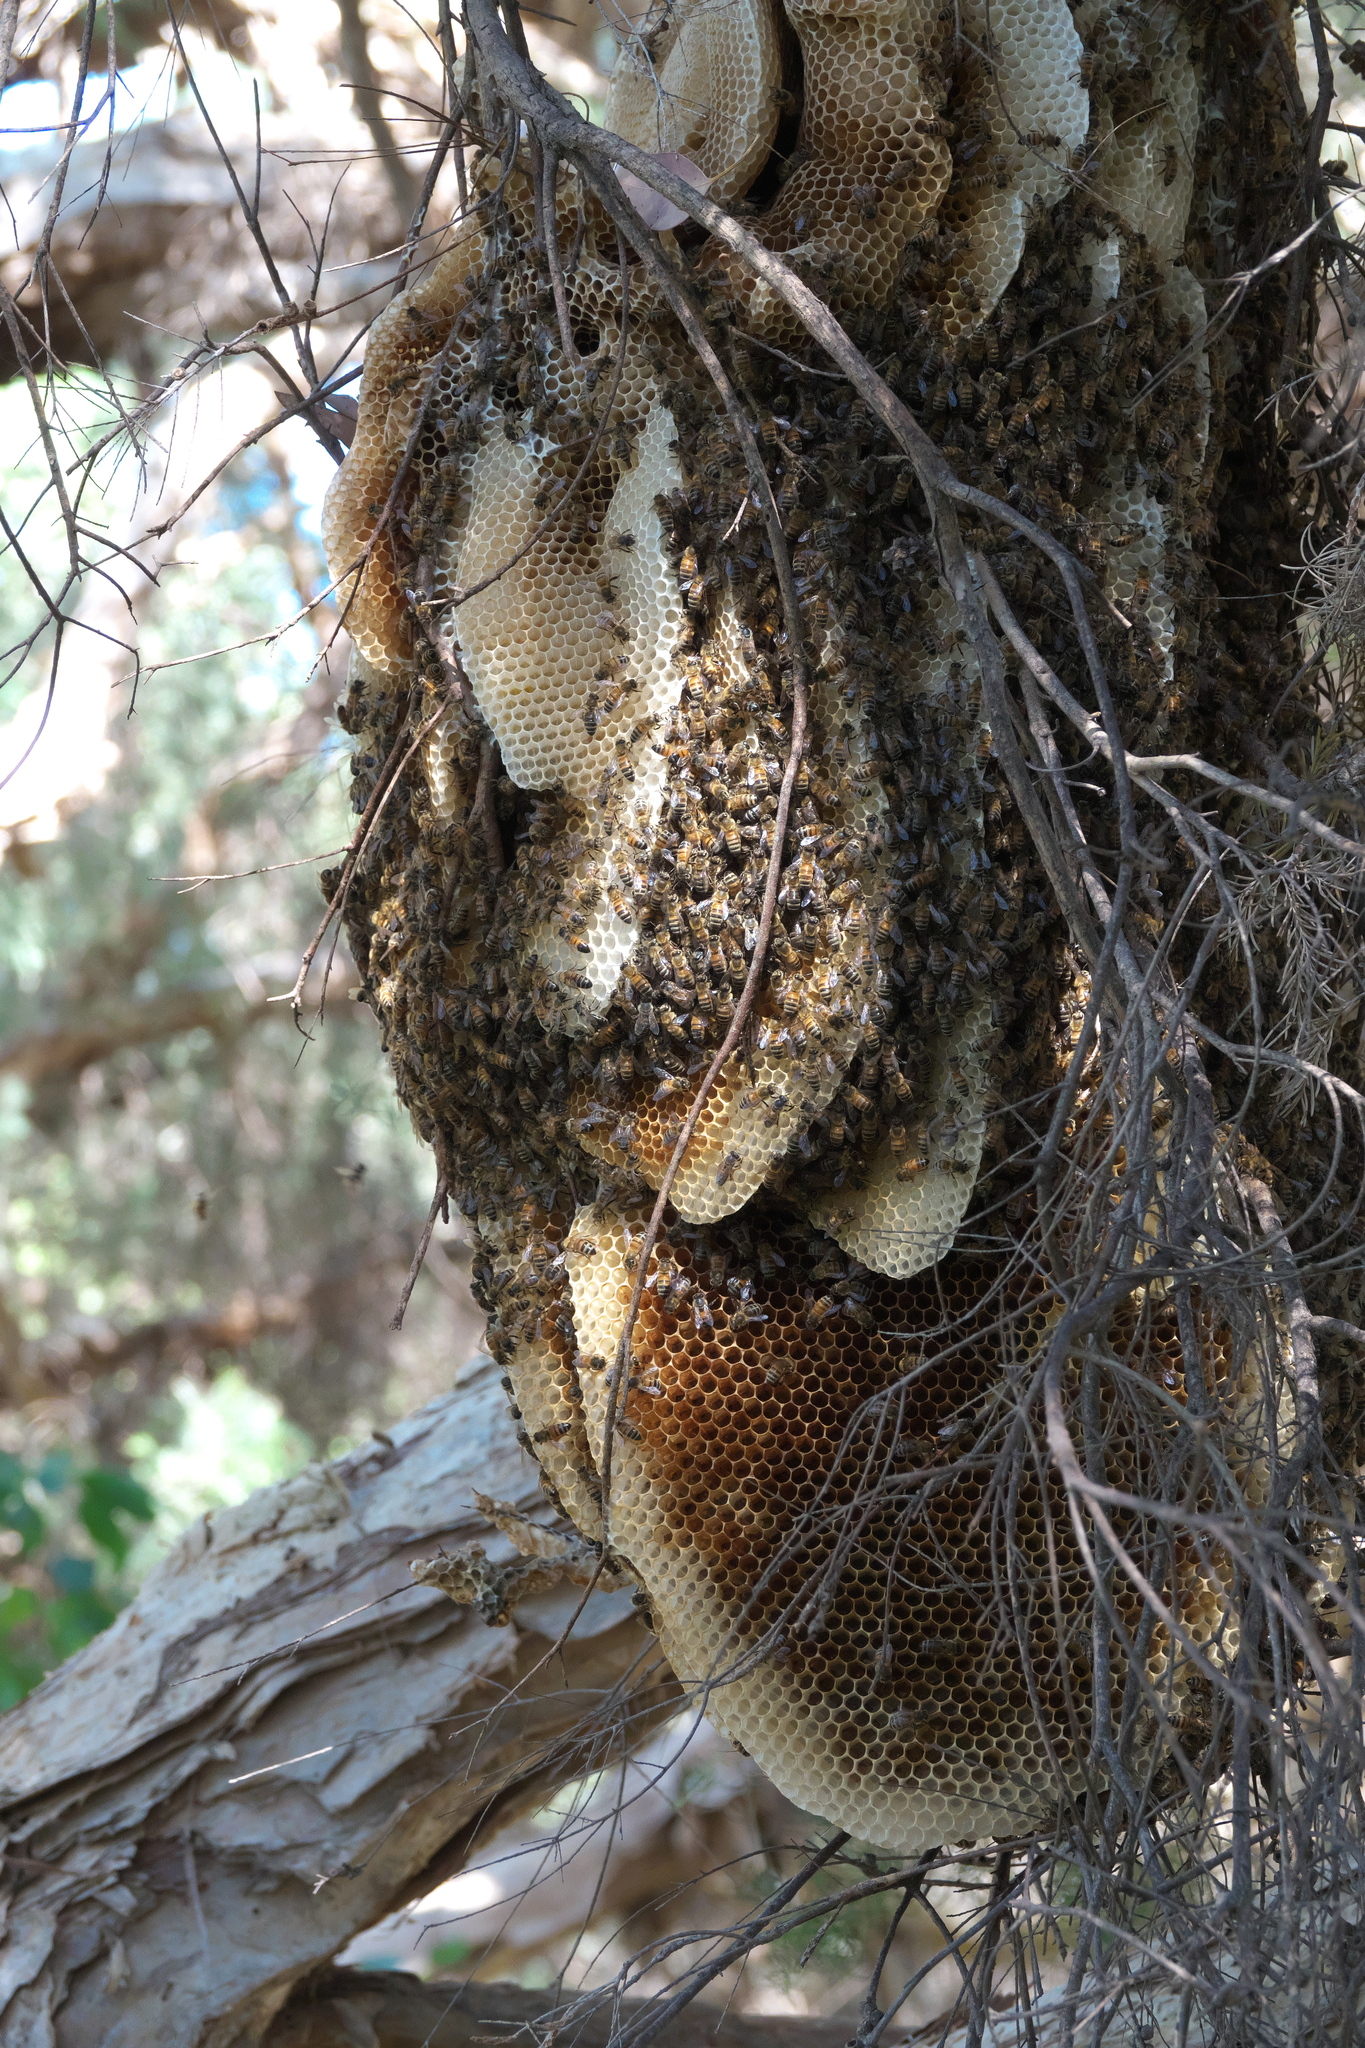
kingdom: Animalia
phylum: Arthropoda
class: Insecta
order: Hymenoptera
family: Apidae
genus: Apis
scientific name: Apis mellifera
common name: Honey bee
